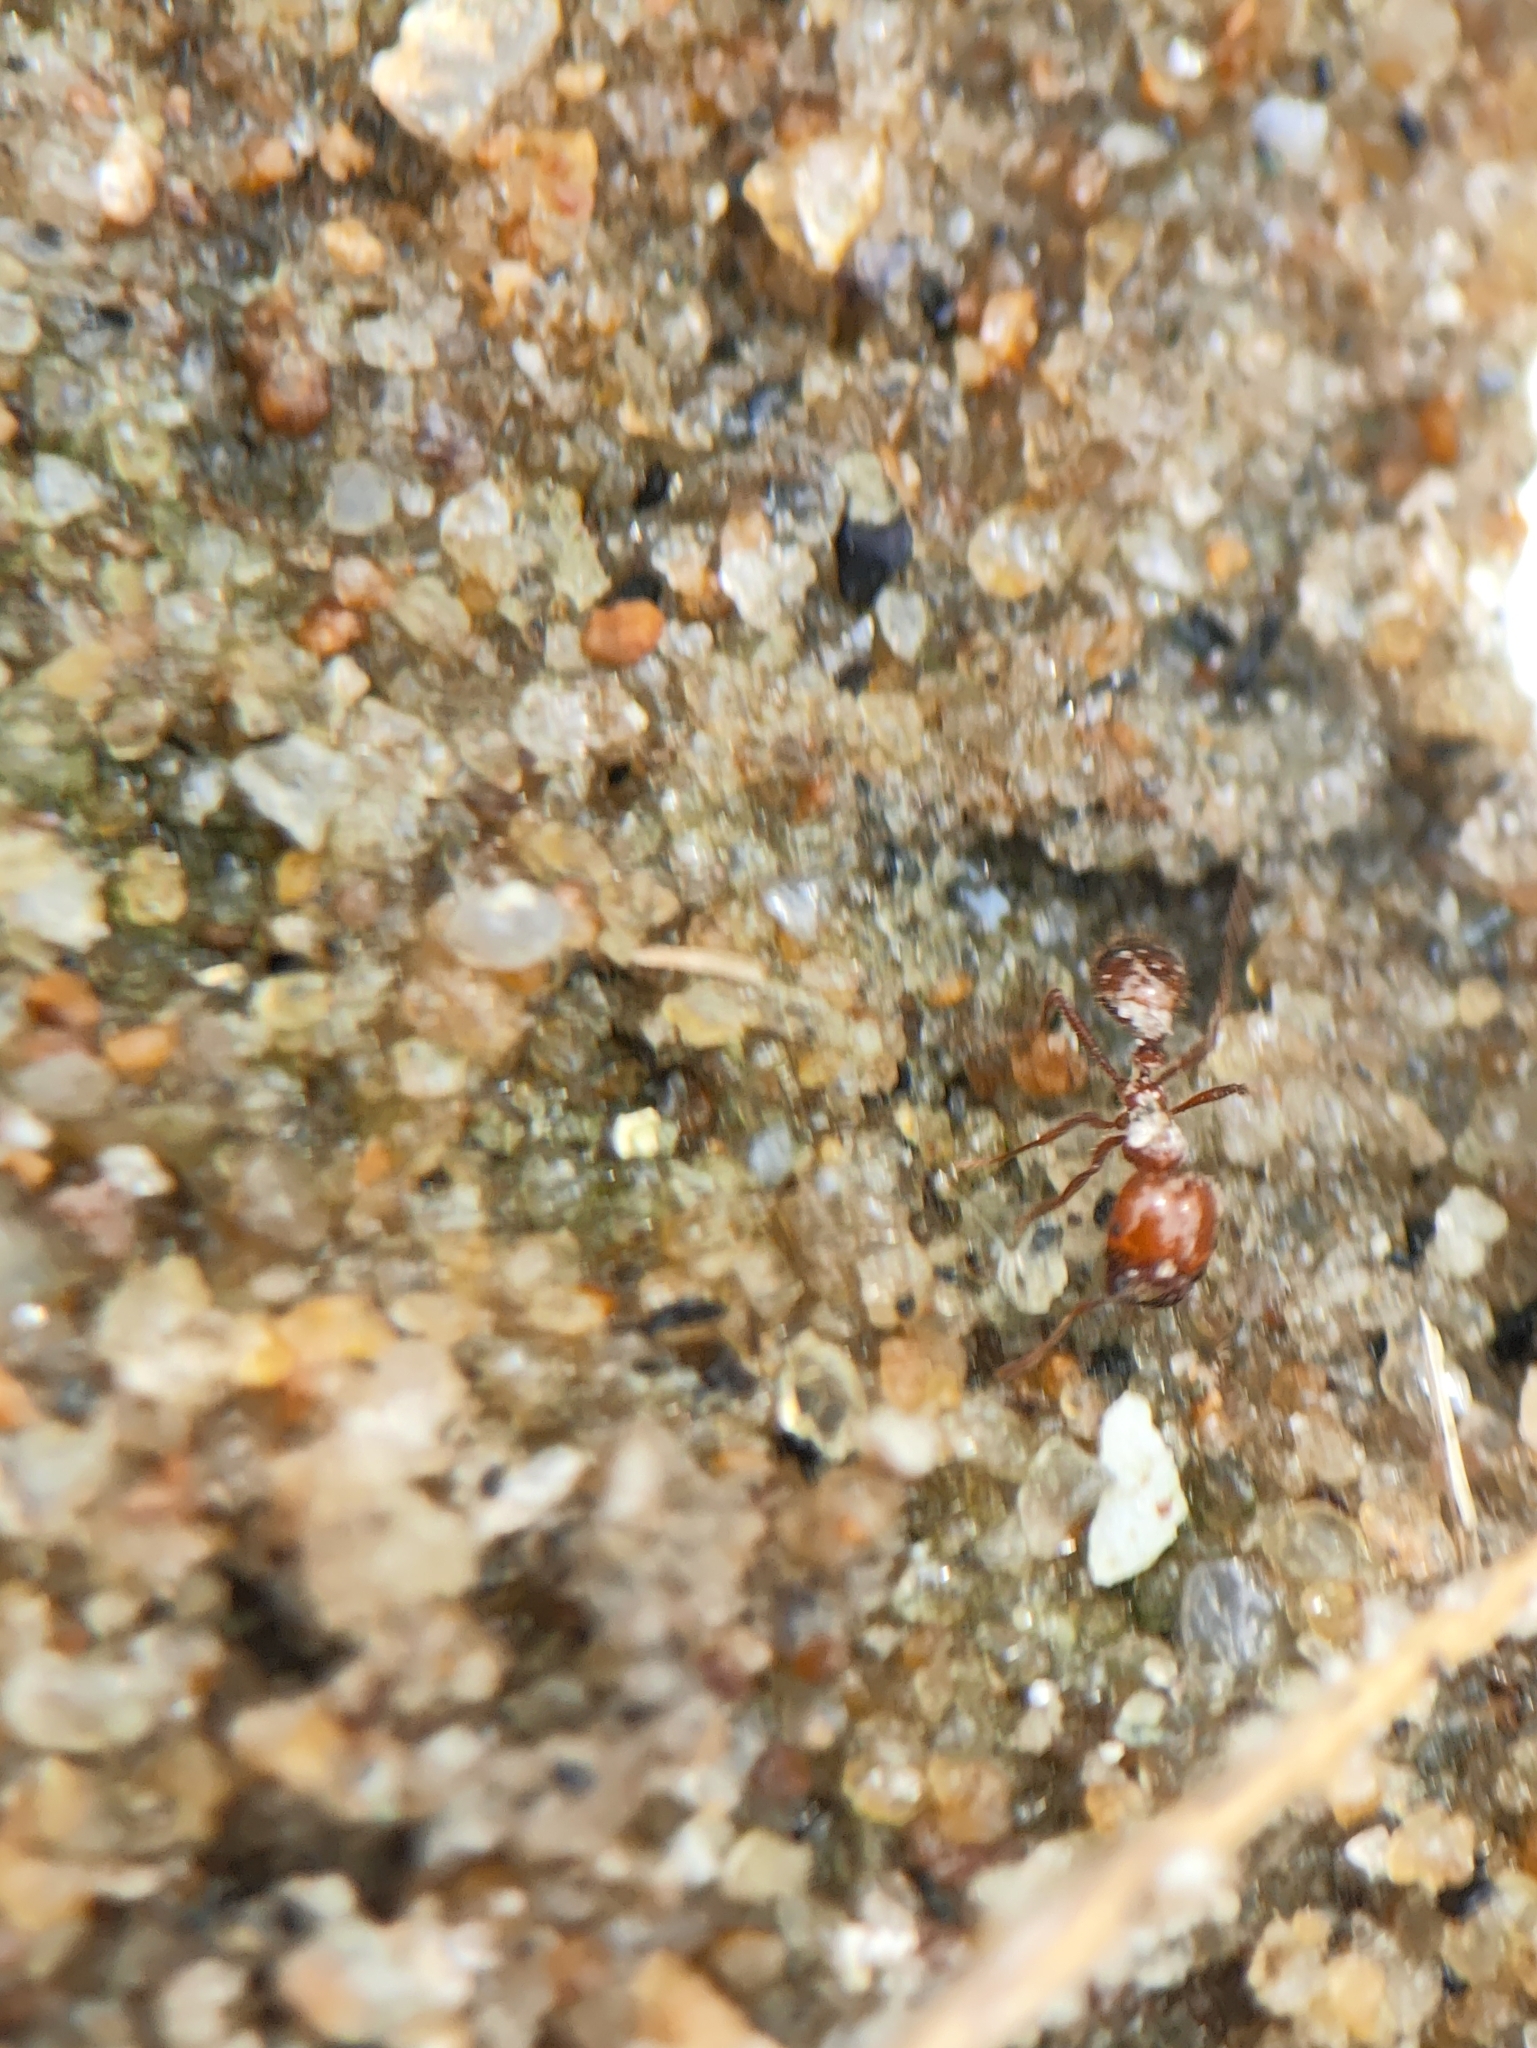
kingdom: Animalia
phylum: Arthropoda
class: Insecta
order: Hymenoptera
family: Formicidae
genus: Solenopsis
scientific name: Solenopsis geminata
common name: Tropical fire ant
